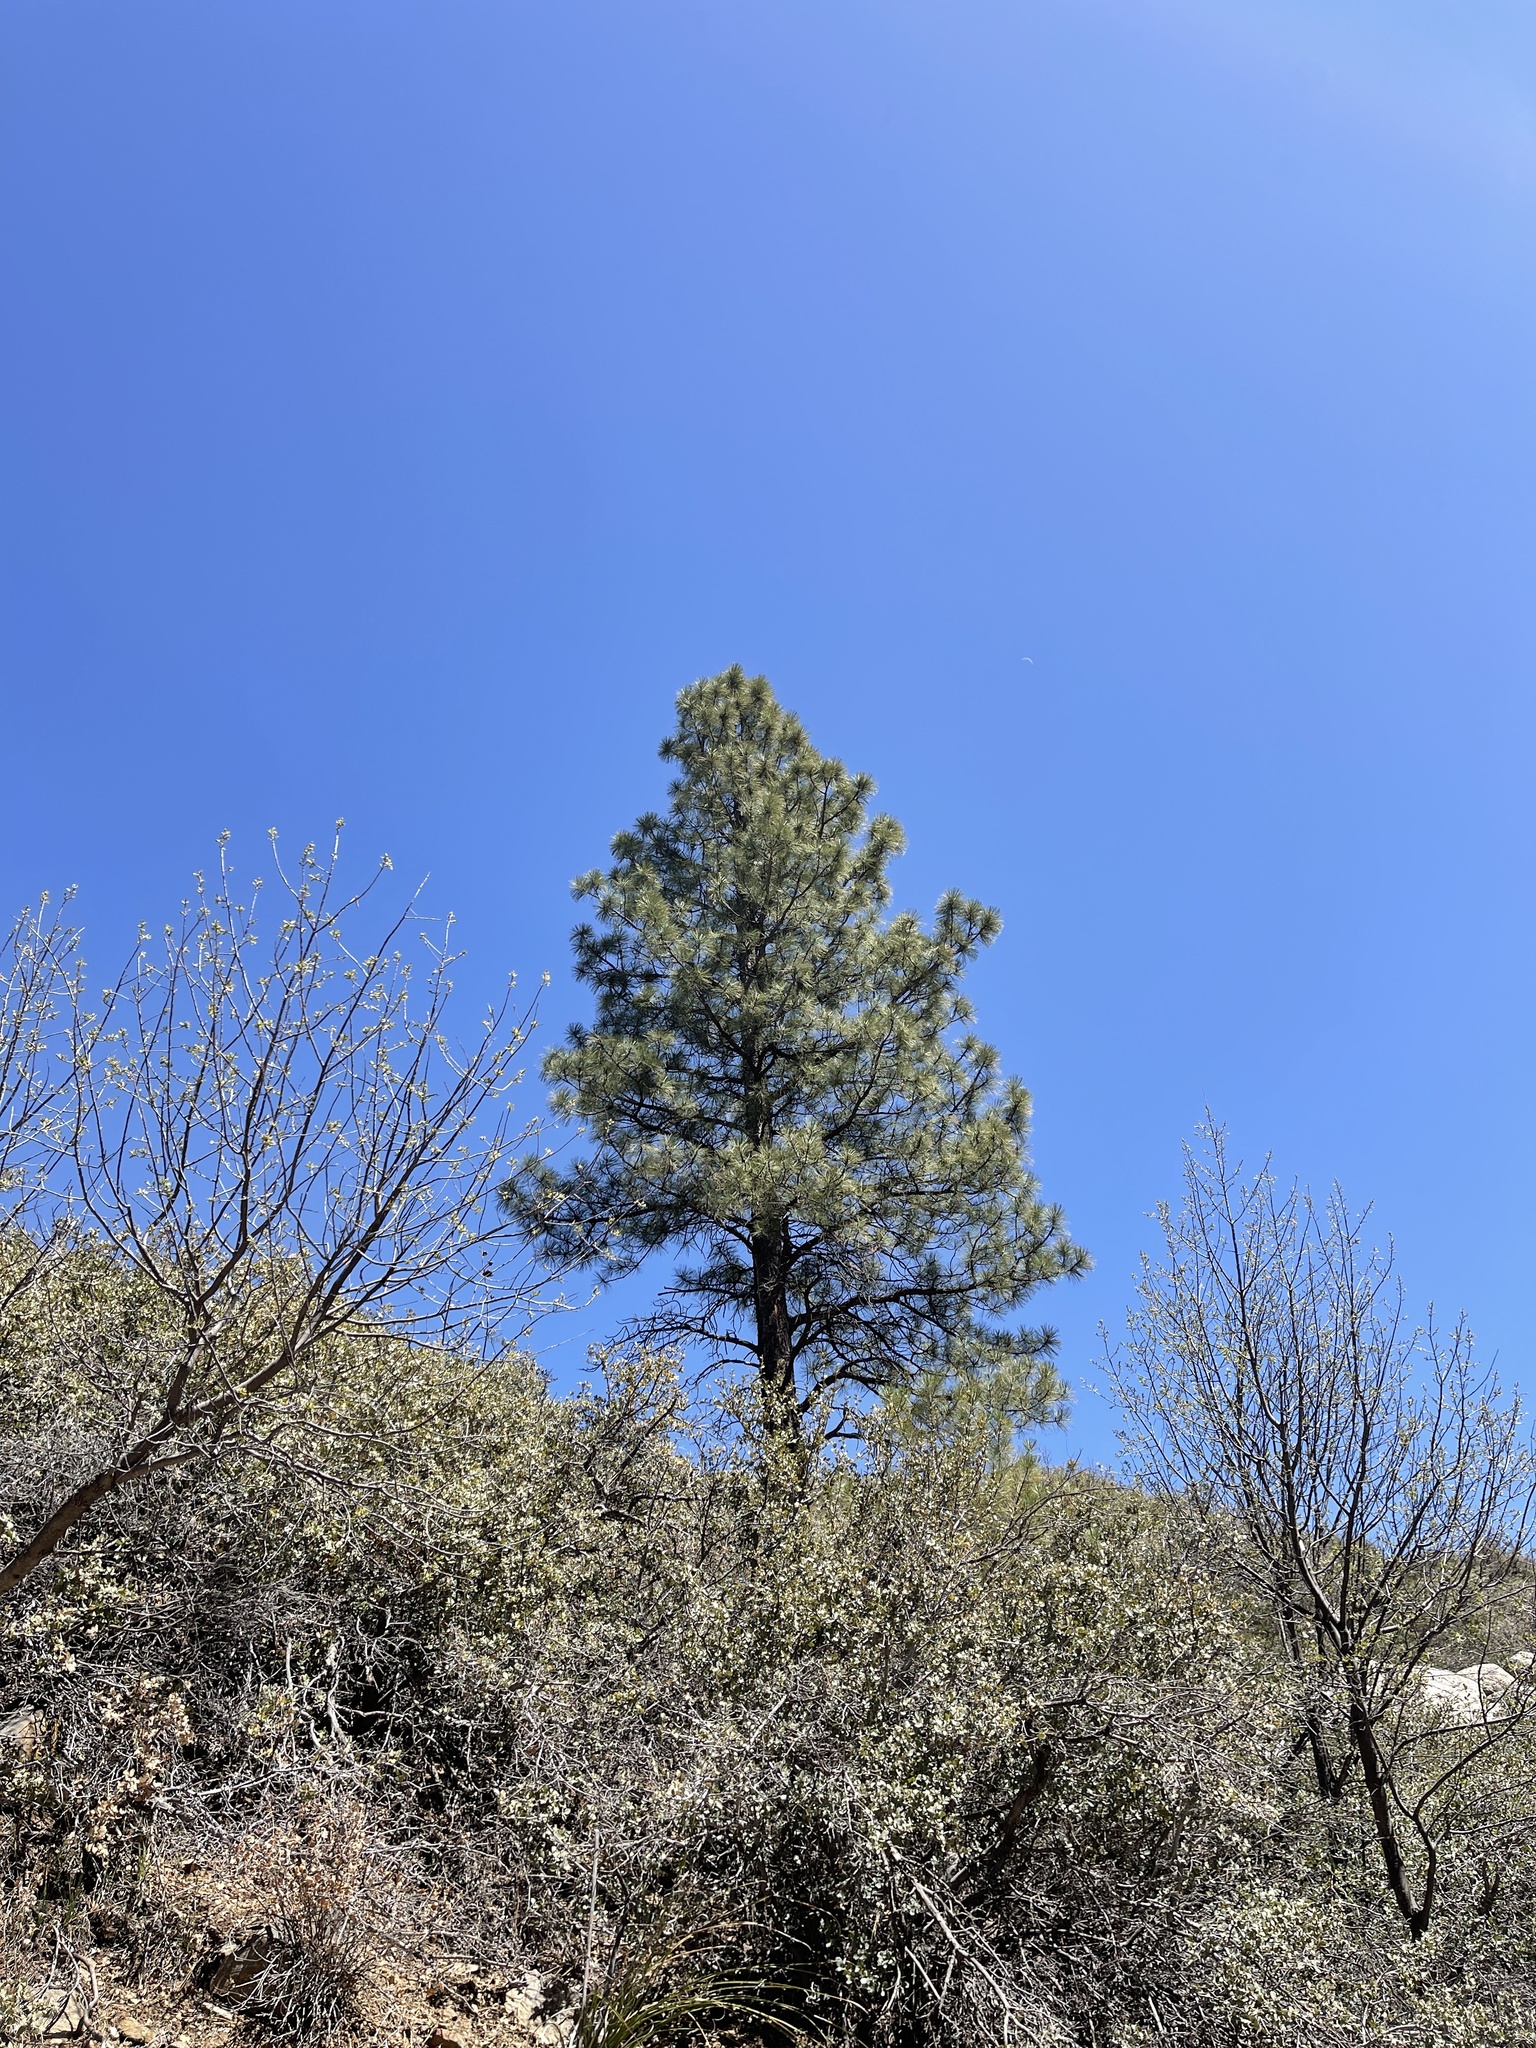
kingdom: Plantae
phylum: Tracheophyta
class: Pinopsida
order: Pinales
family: Pinaceae
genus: Pinus
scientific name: Pinus ponderosa
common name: Western yellow-pine
